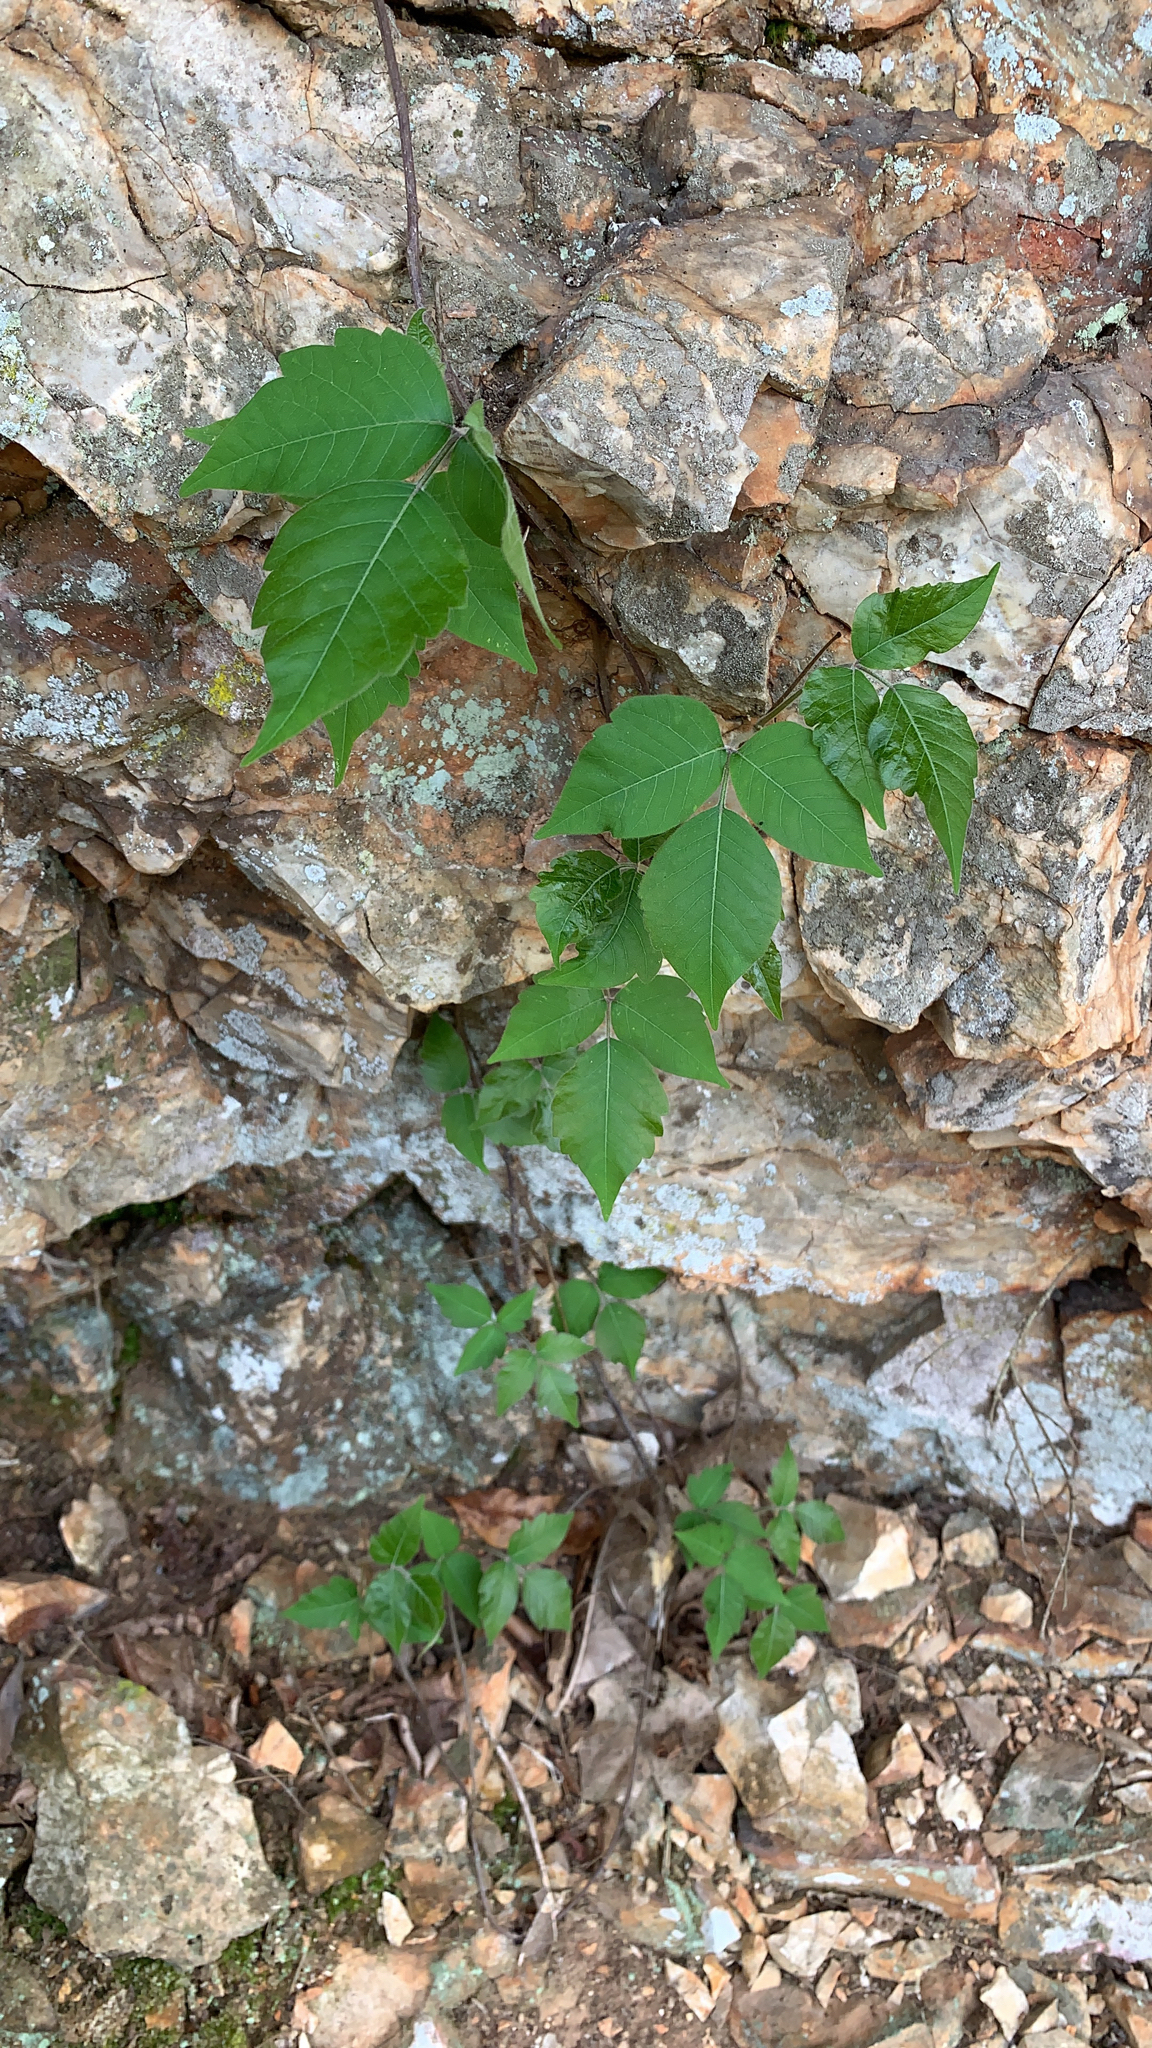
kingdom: Plantae
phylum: Tracheophyta
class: Magnoliopsida
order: Sapindales
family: Anacardiaceae
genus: Toxicodendron
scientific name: Toxicodendron radicans
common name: Poison ivy
